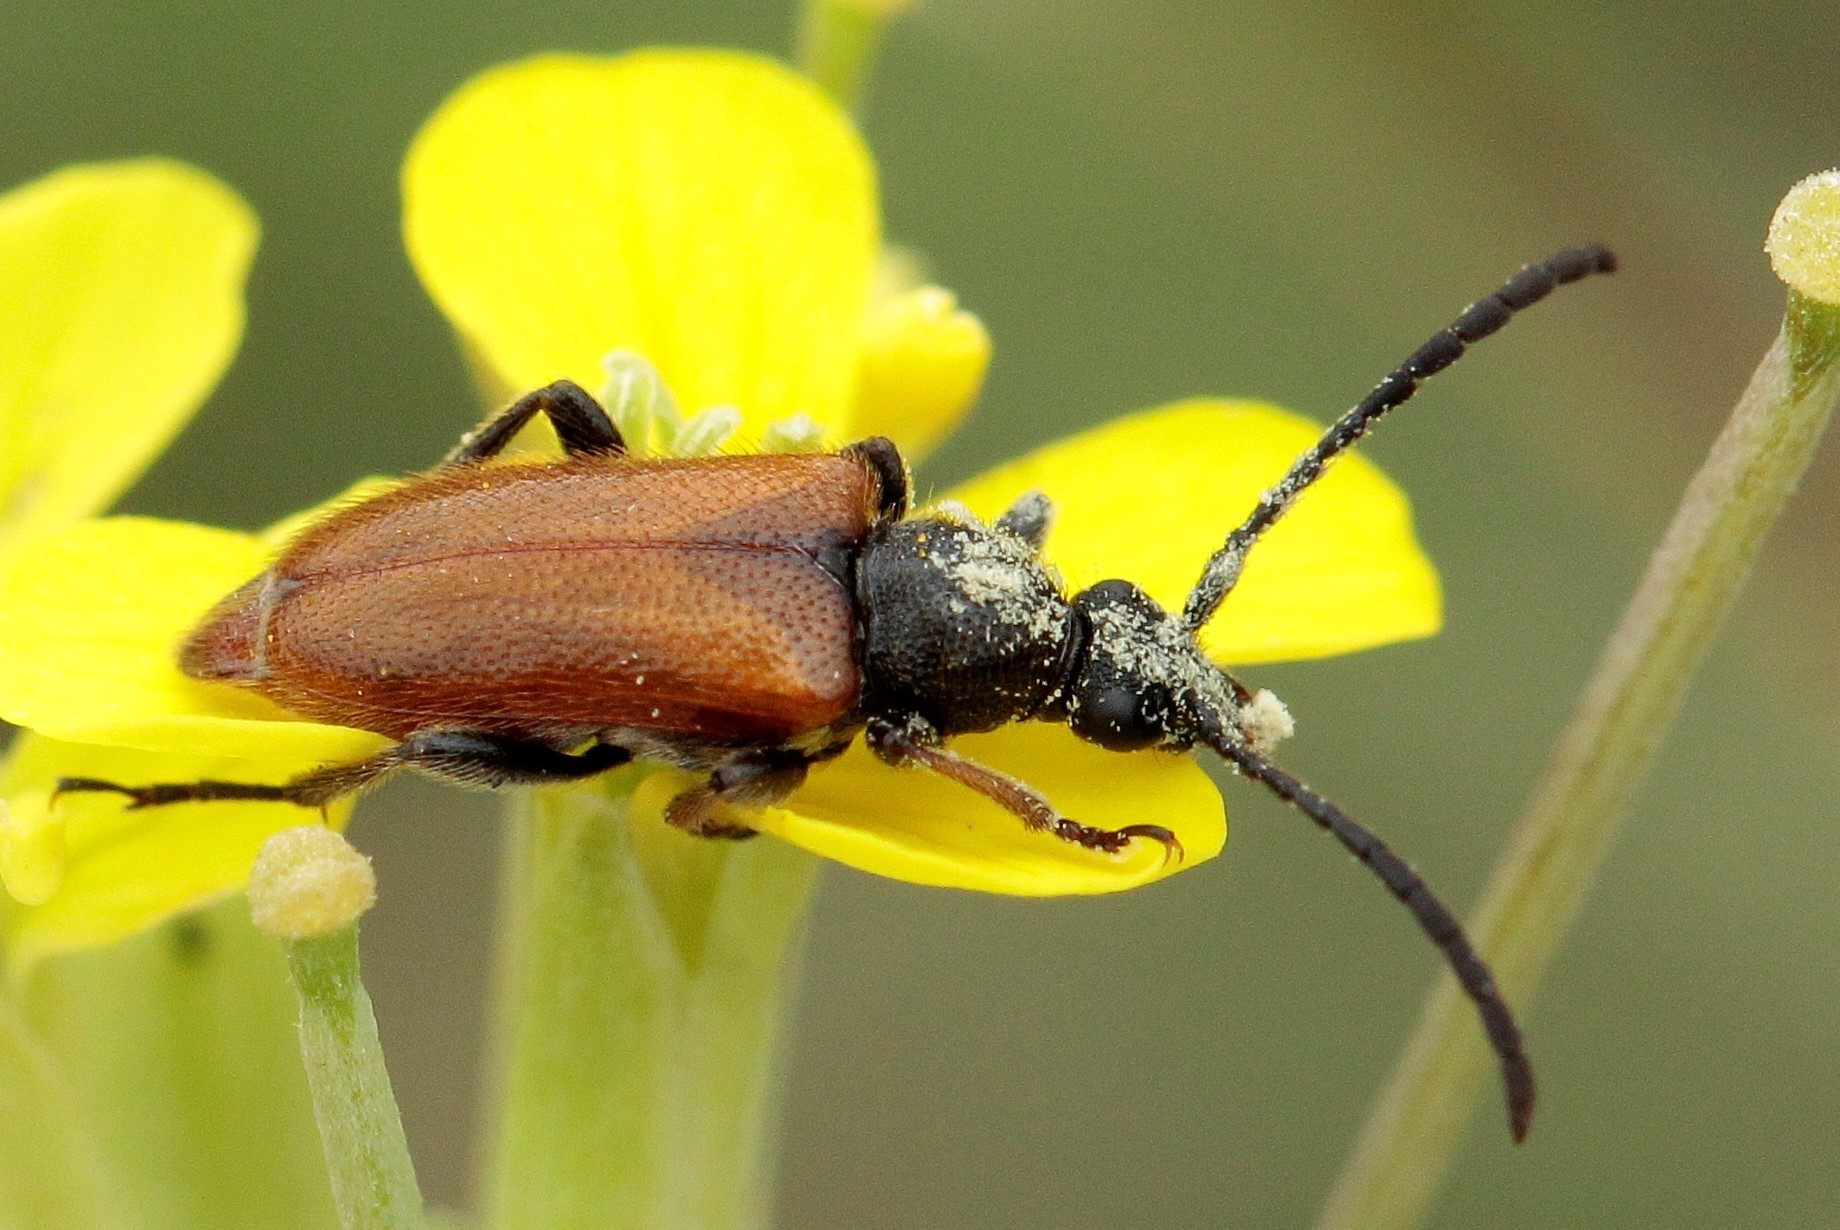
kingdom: Animalia
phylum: Arthropoda
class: Insecta
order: Coleoptera
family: Cerambycidae
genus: Pseudovadonia
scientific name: Pseudovadonia livida
